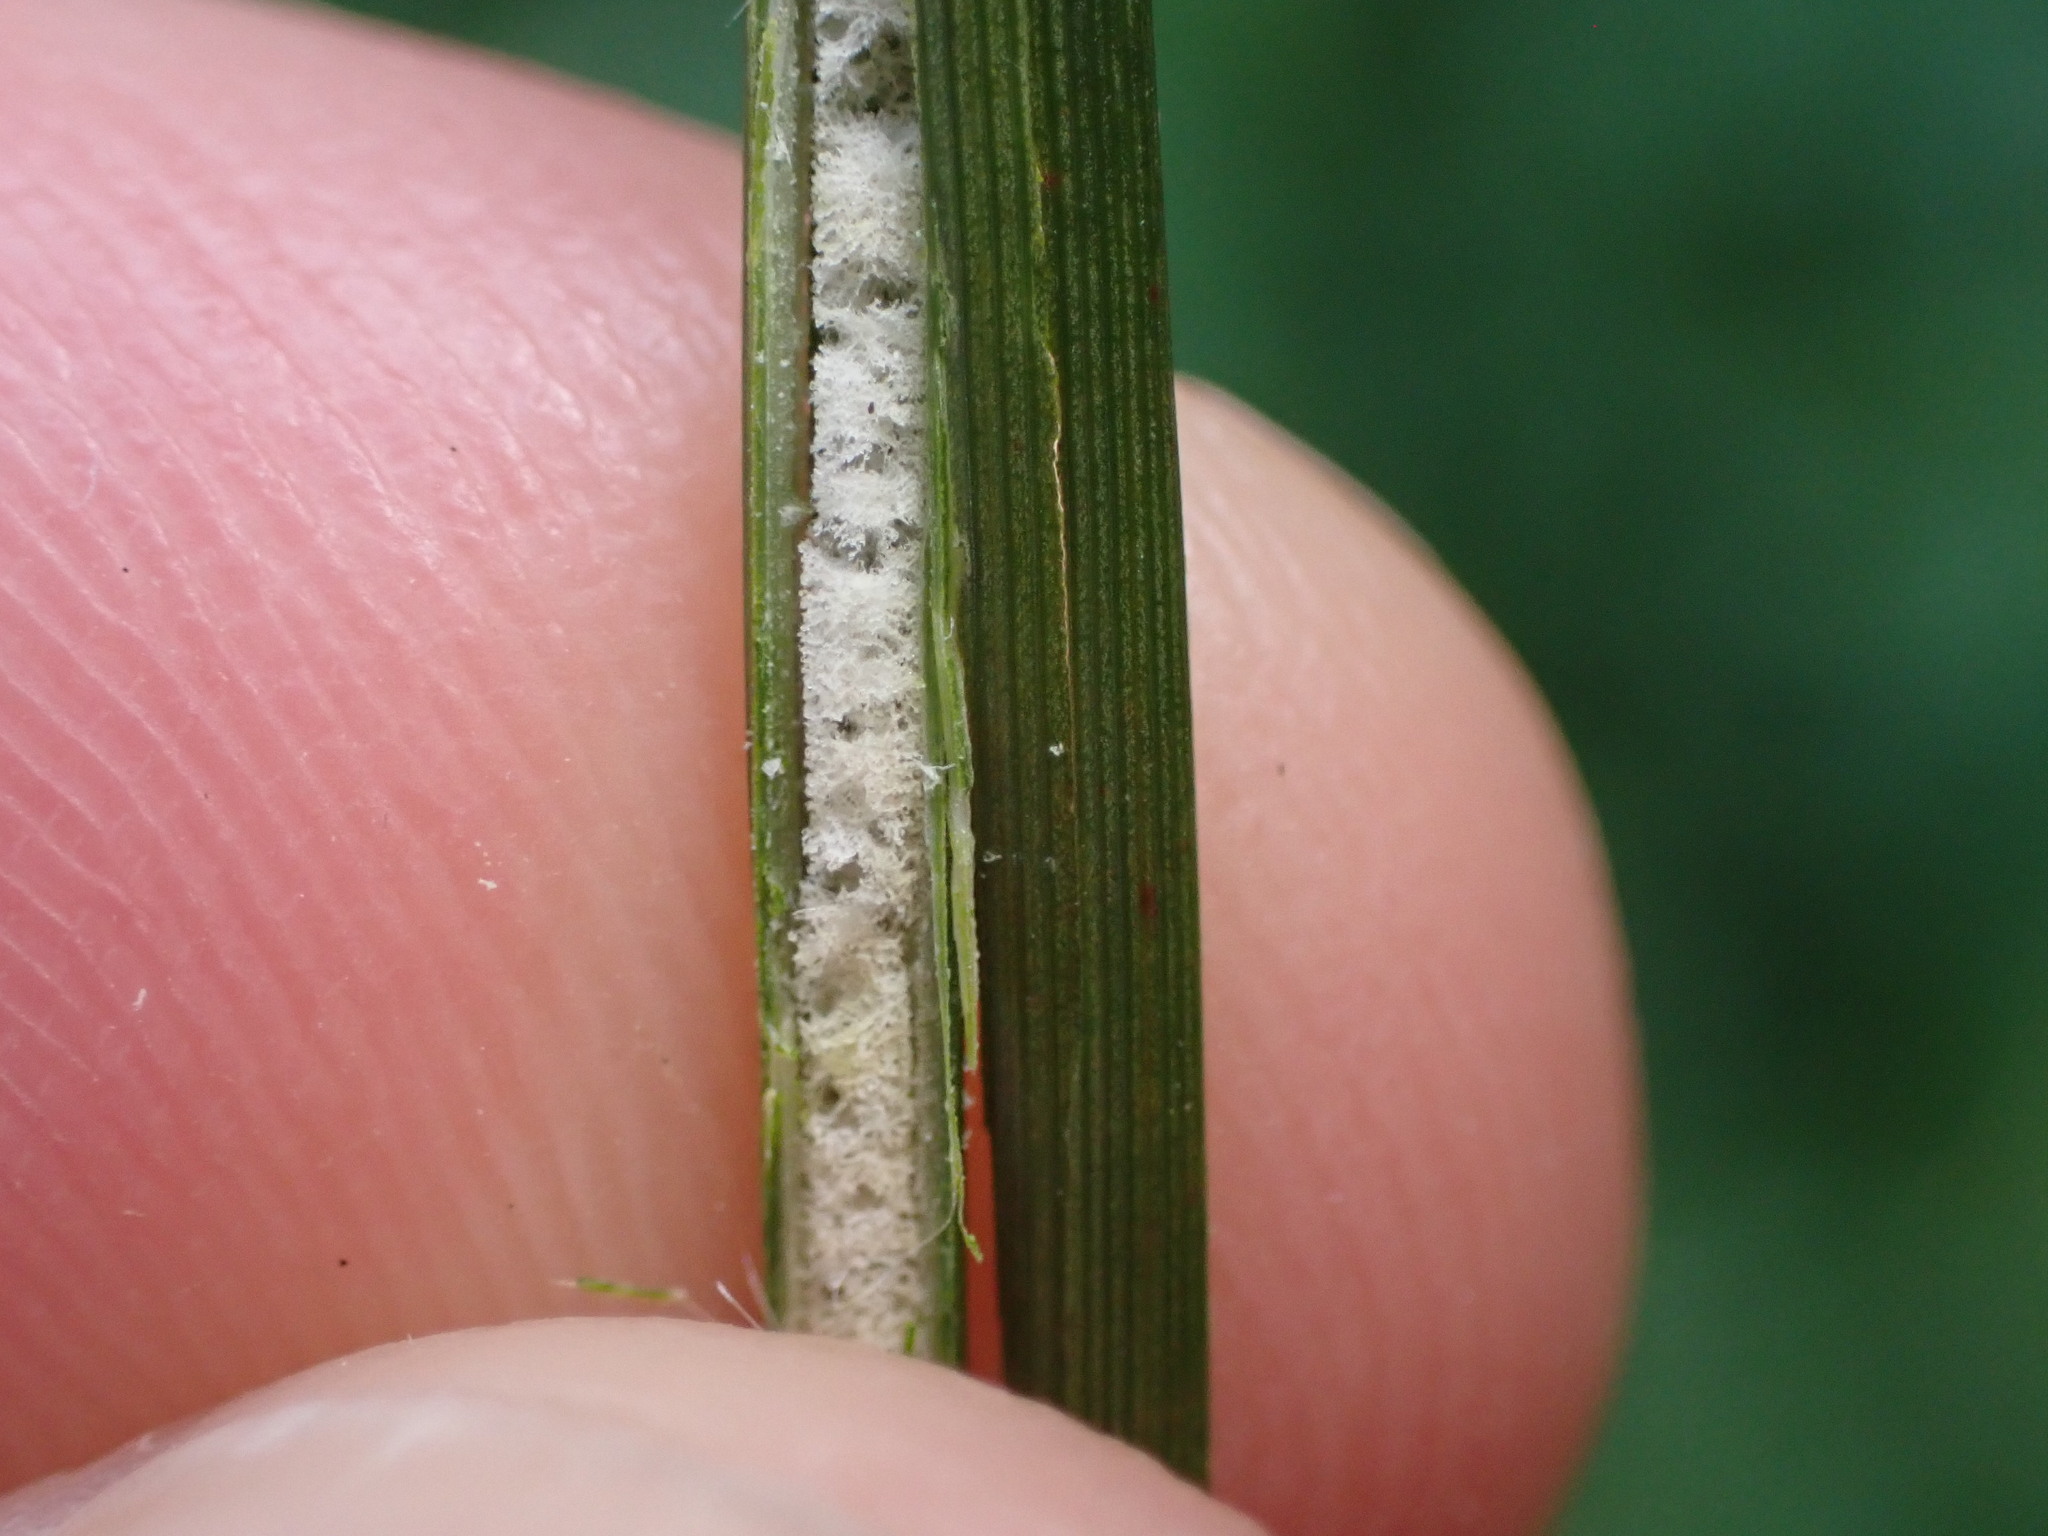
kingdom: Plantae
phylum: Tracheophyta
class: Liliopsida
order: Poales
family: Juncaceae
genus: Juncus
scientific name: Juncus sarophorus
